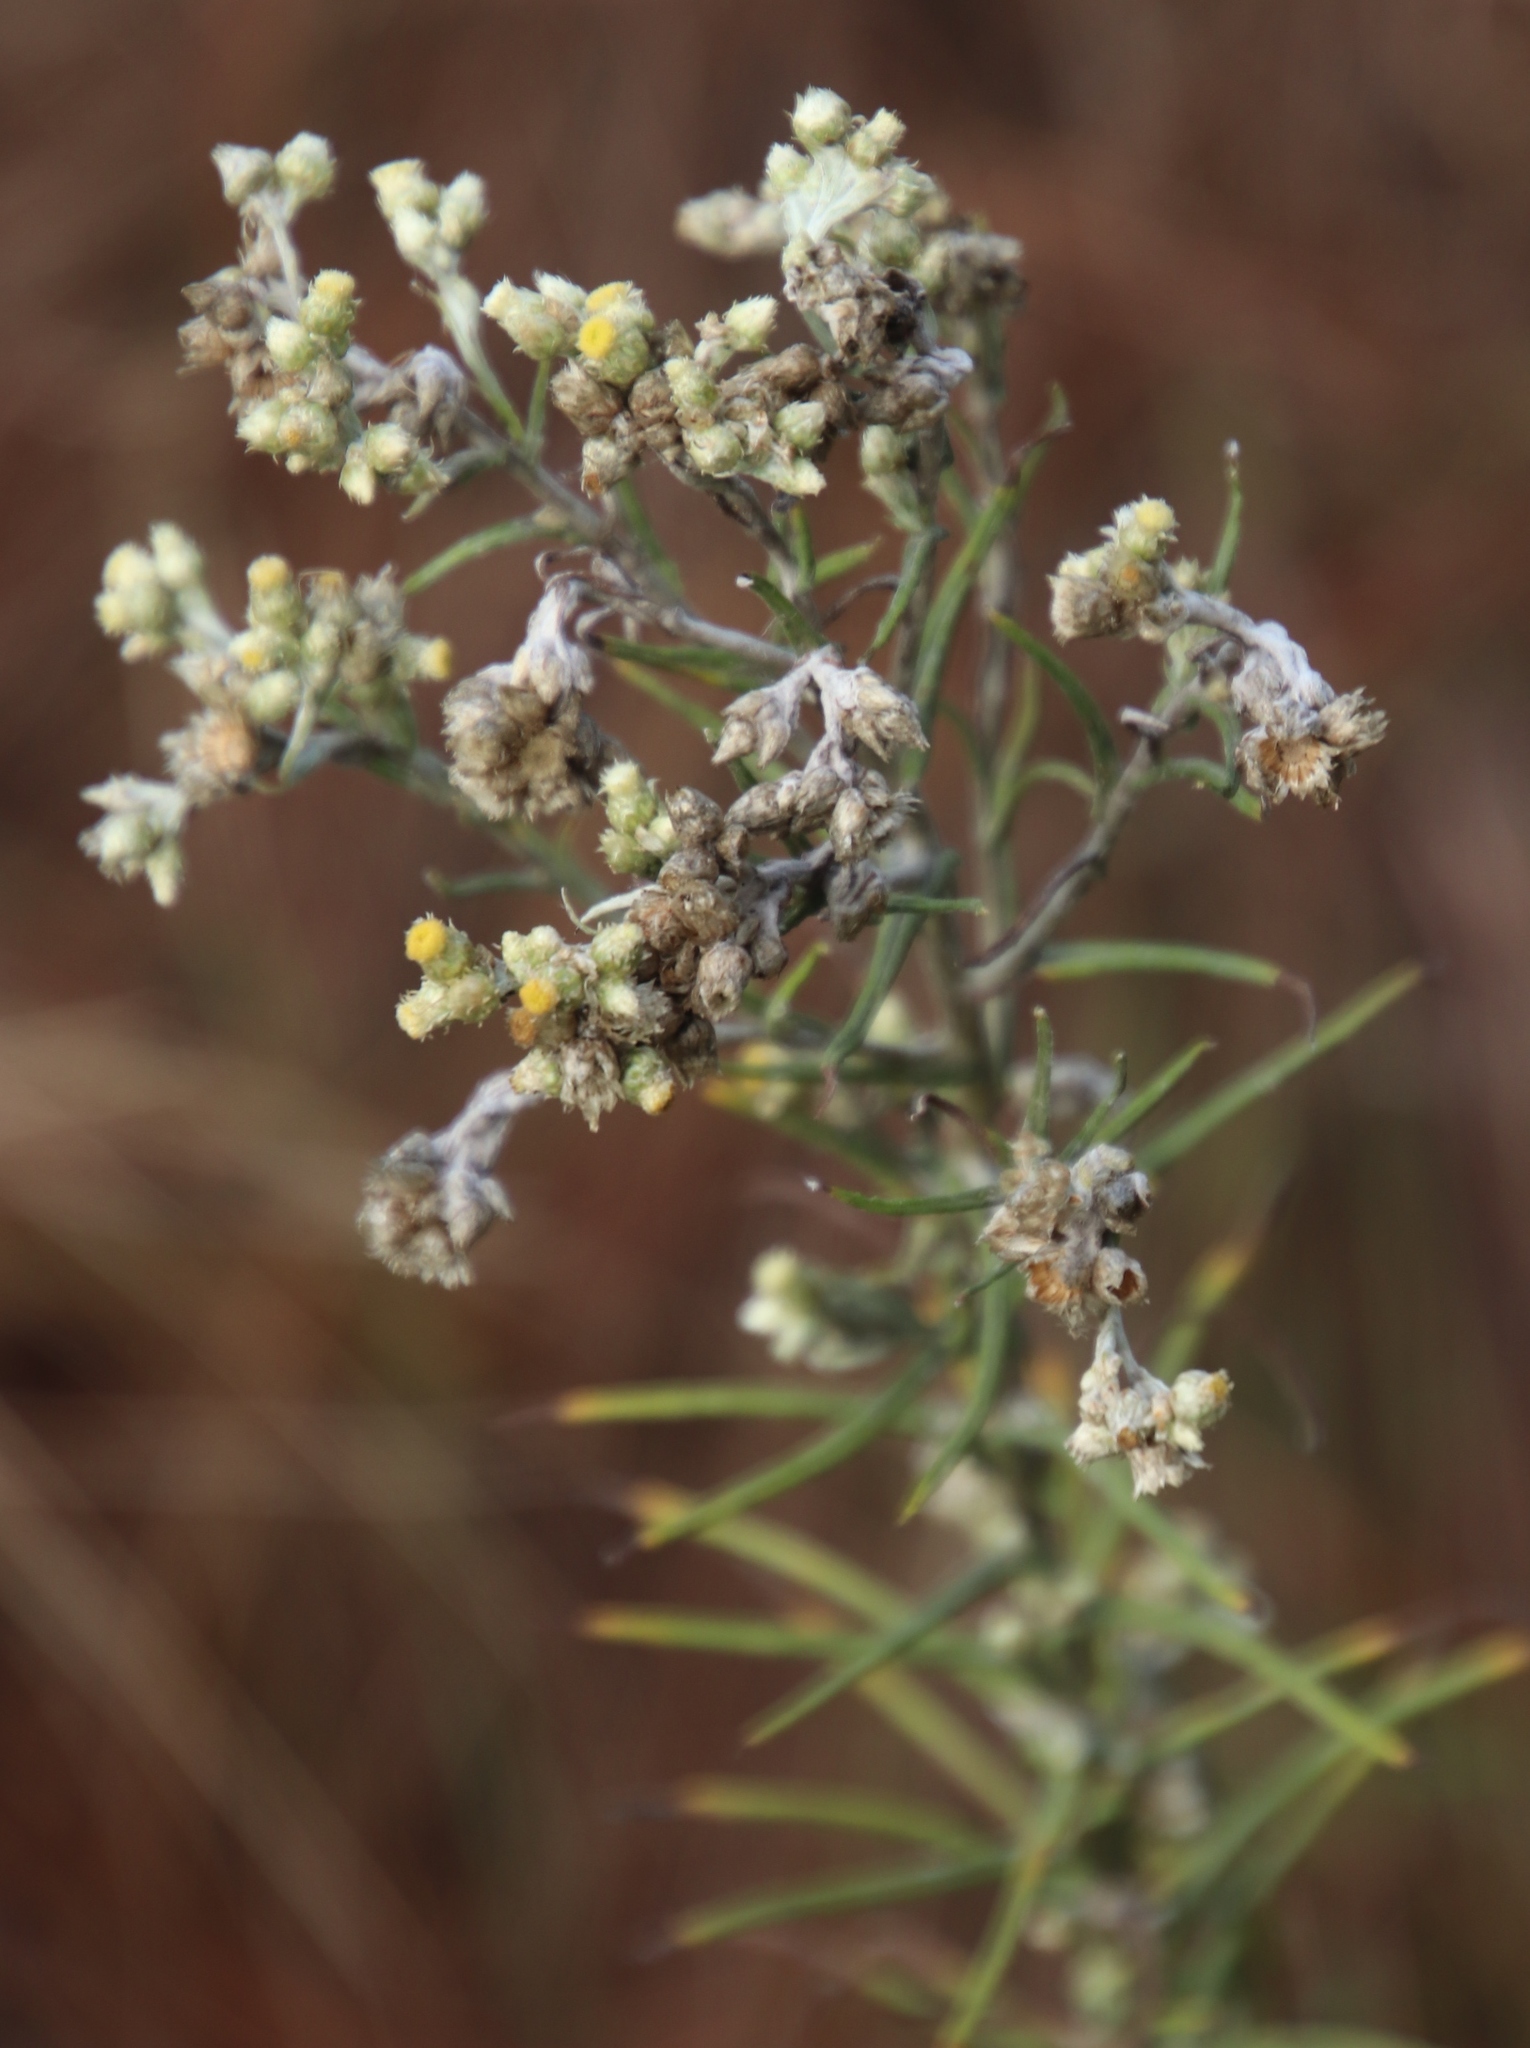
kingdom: Plantae
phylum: Tracheophyta
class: Magnoliopsida
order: Asterales
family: Asteraceae
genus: Helichrysum
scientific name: Helichrysum rugulosum
